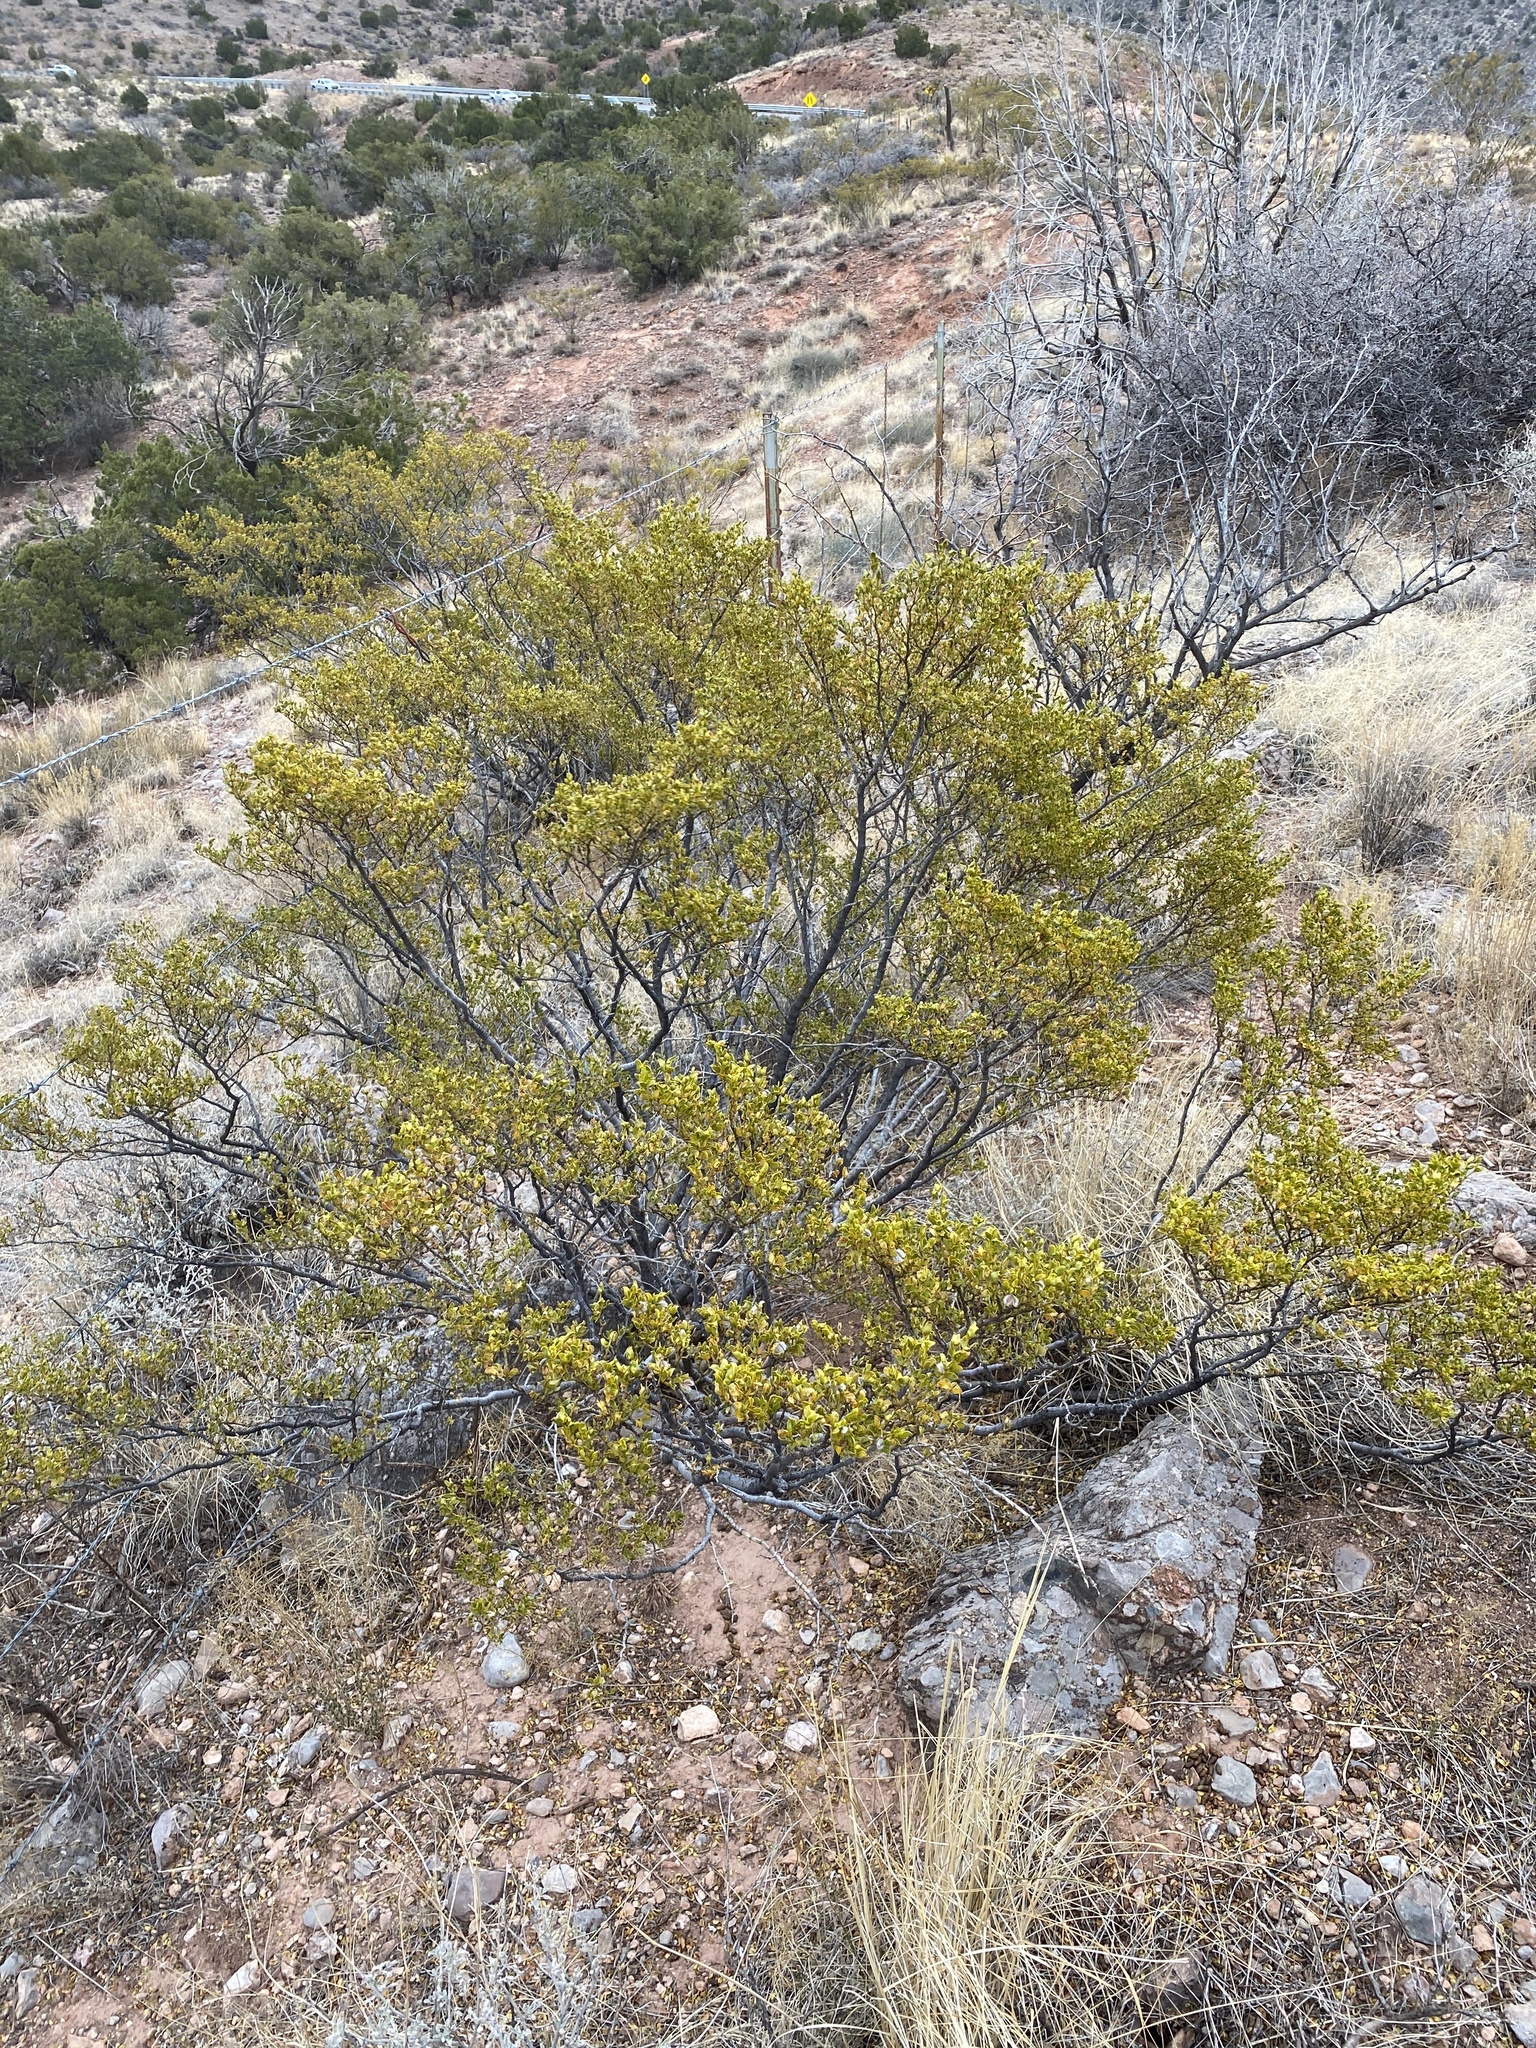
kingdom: Plantae
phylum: Tracheophyta
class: Magnoliopsida
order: Zygophyllales
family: Zygophyllaceae
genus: Larrea
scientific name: Larrea tridentata
